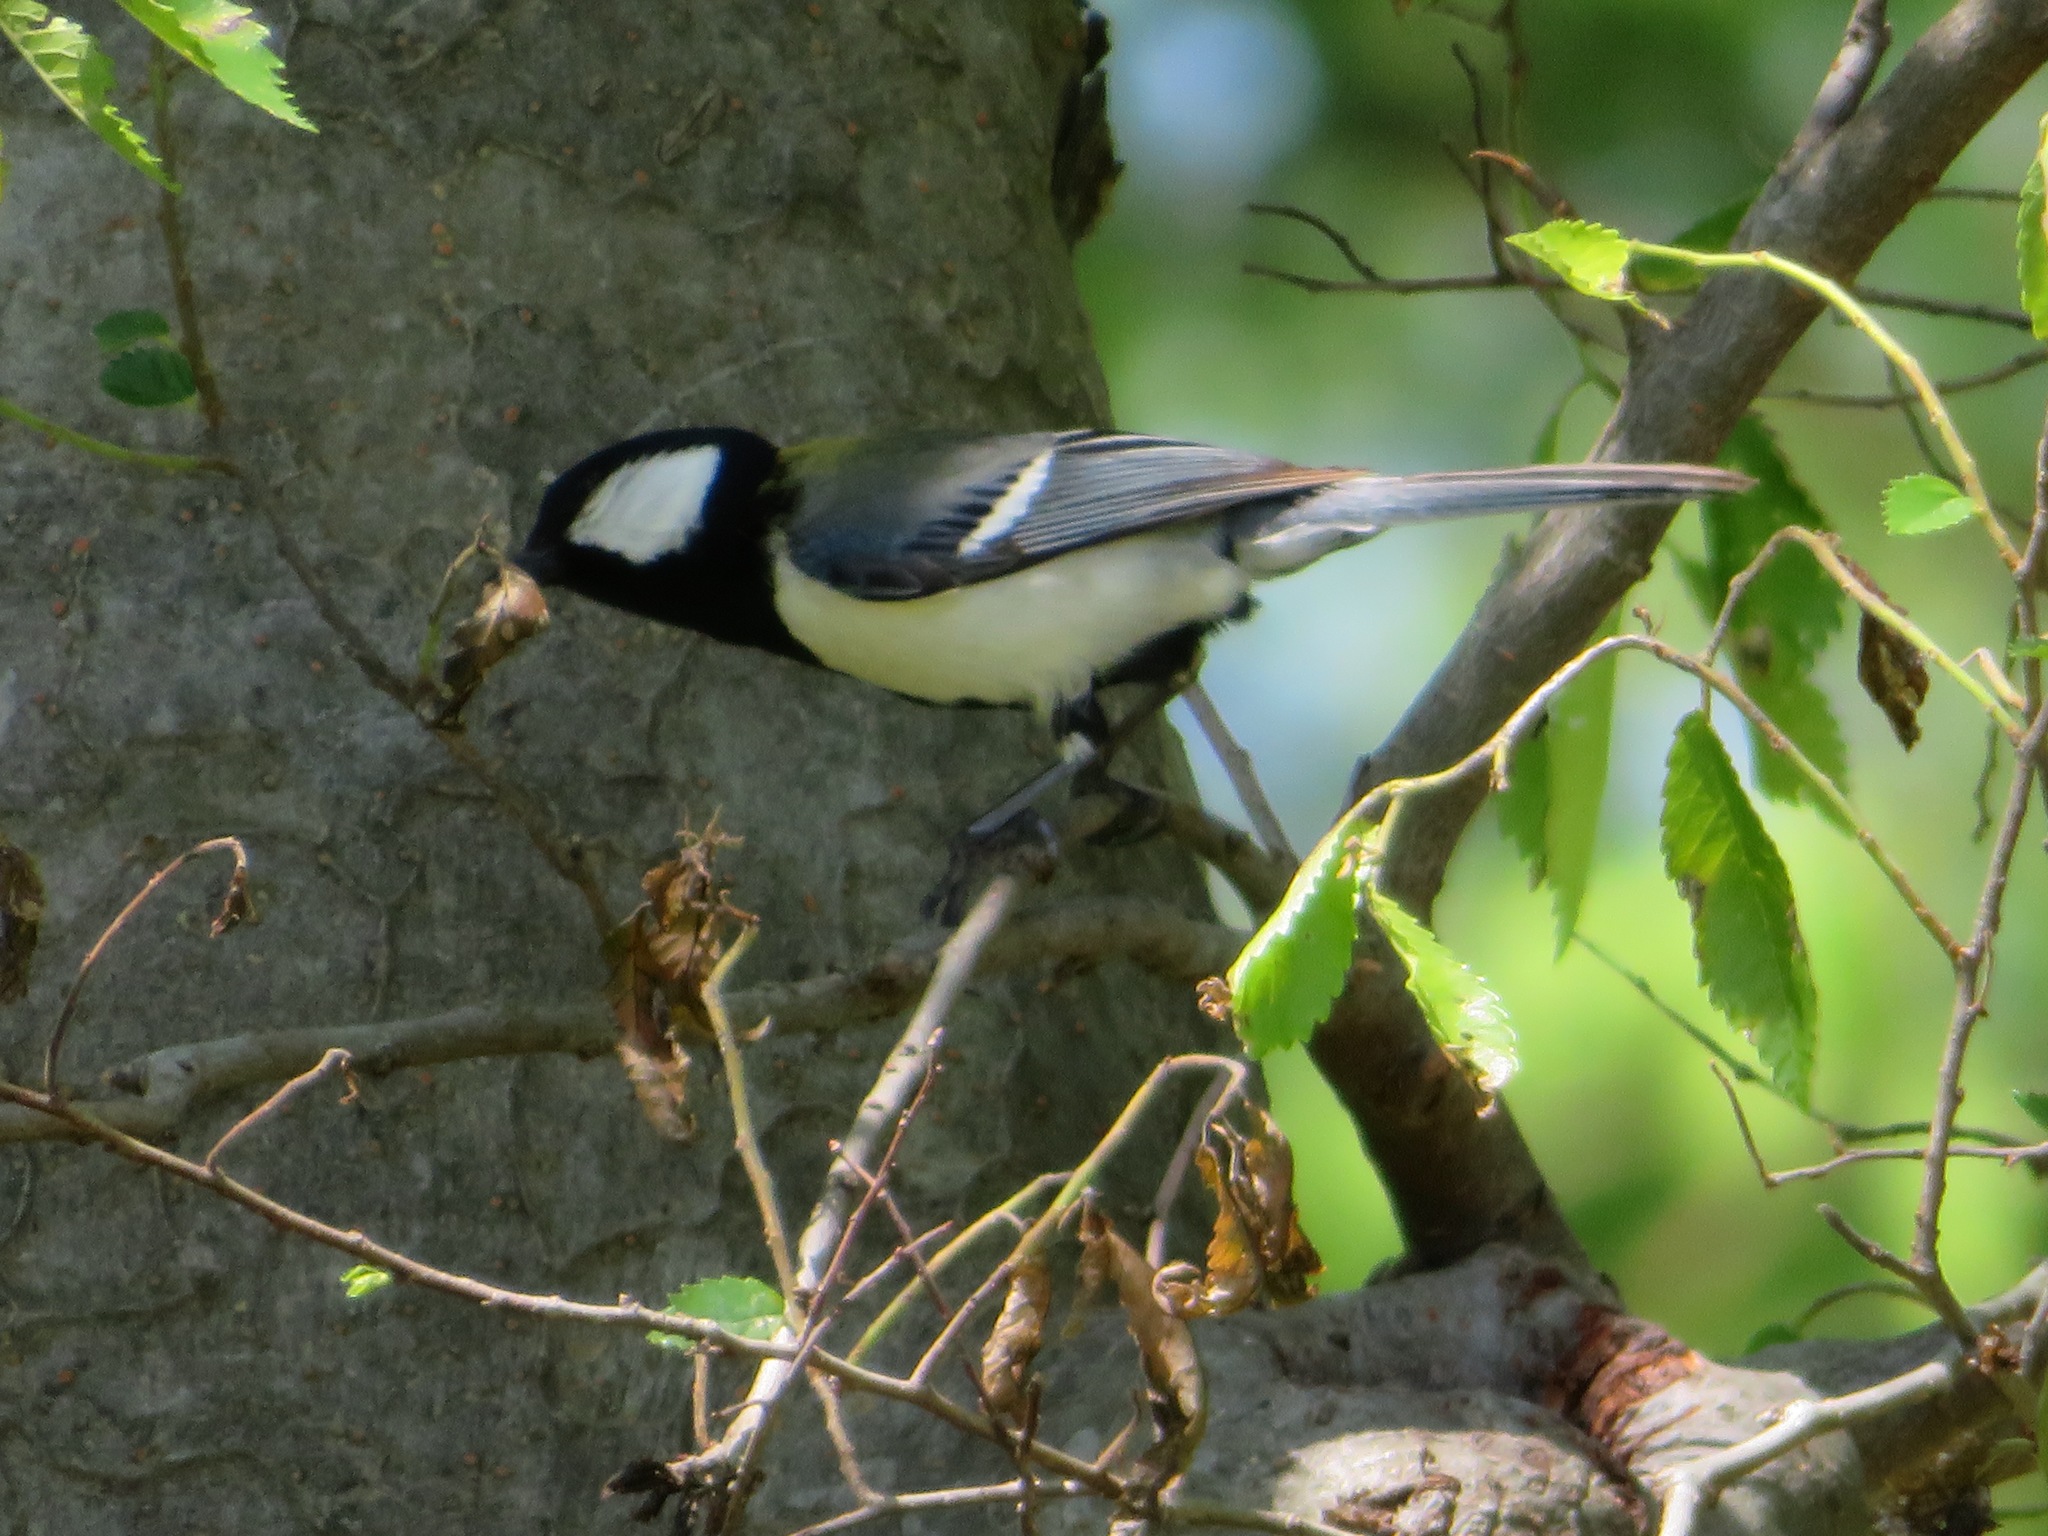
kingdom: Animalia
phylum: Chordata
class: Aves
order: Passeriformes
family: Paridae
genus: Parus
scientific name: Parus minor
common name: Japanese tit
